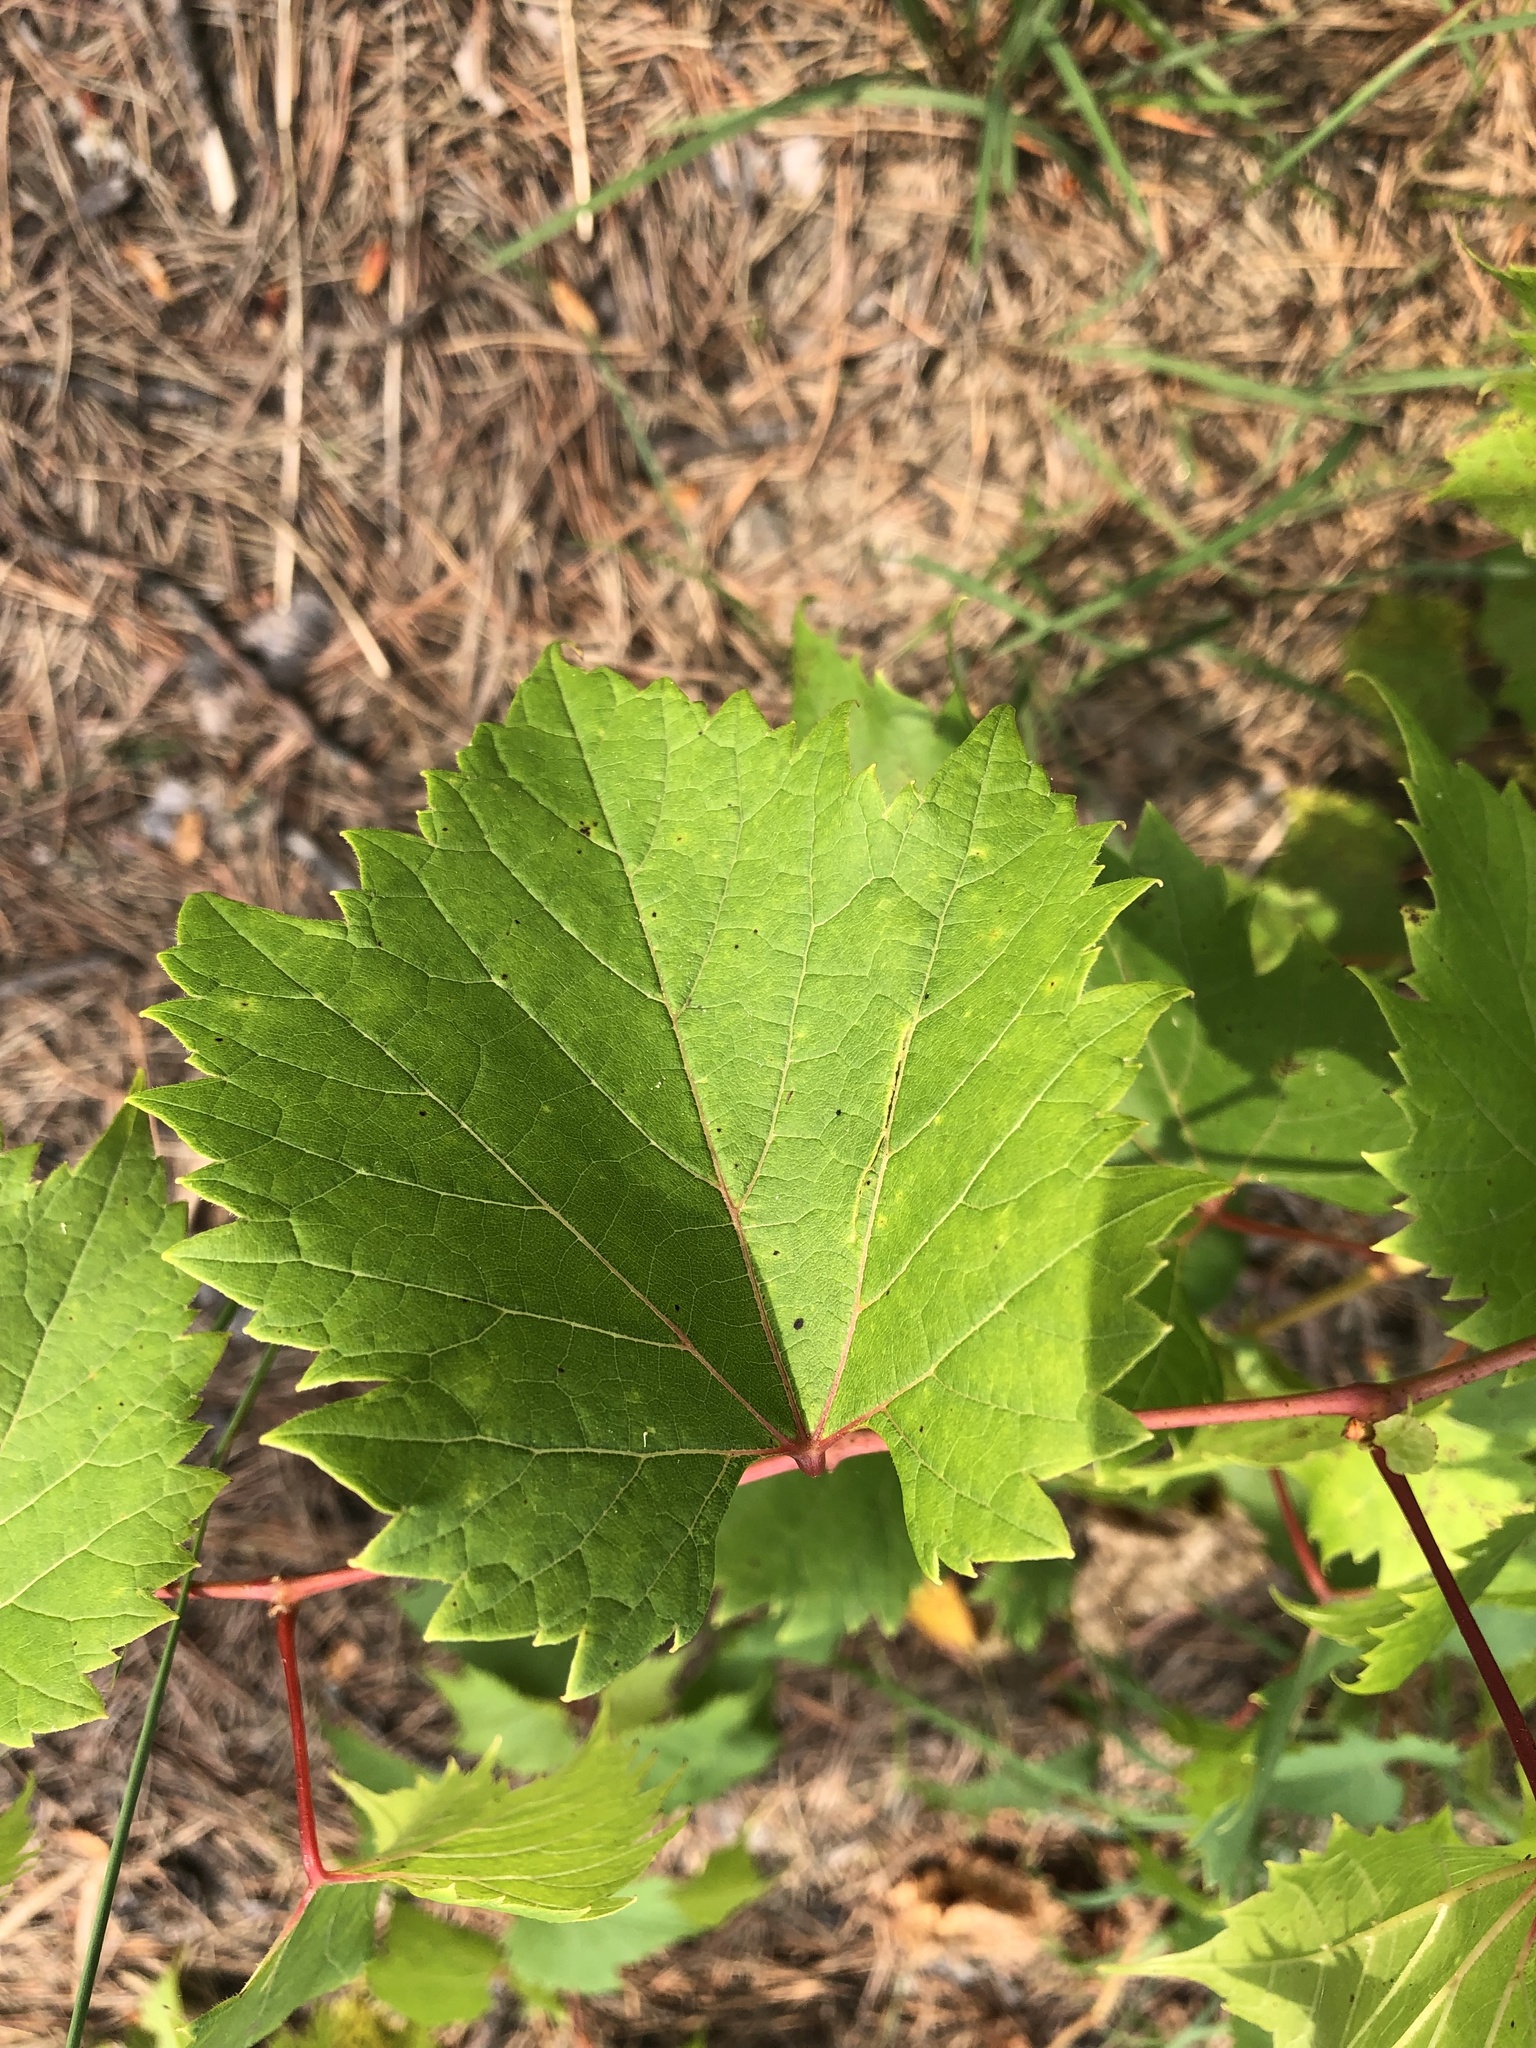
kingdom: Plantae
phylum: Tracheophyta
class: Magnoliopsida
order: Vitales
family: Vitaceae
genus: Vitis
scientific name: Vitis riparia
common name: Frost grape
